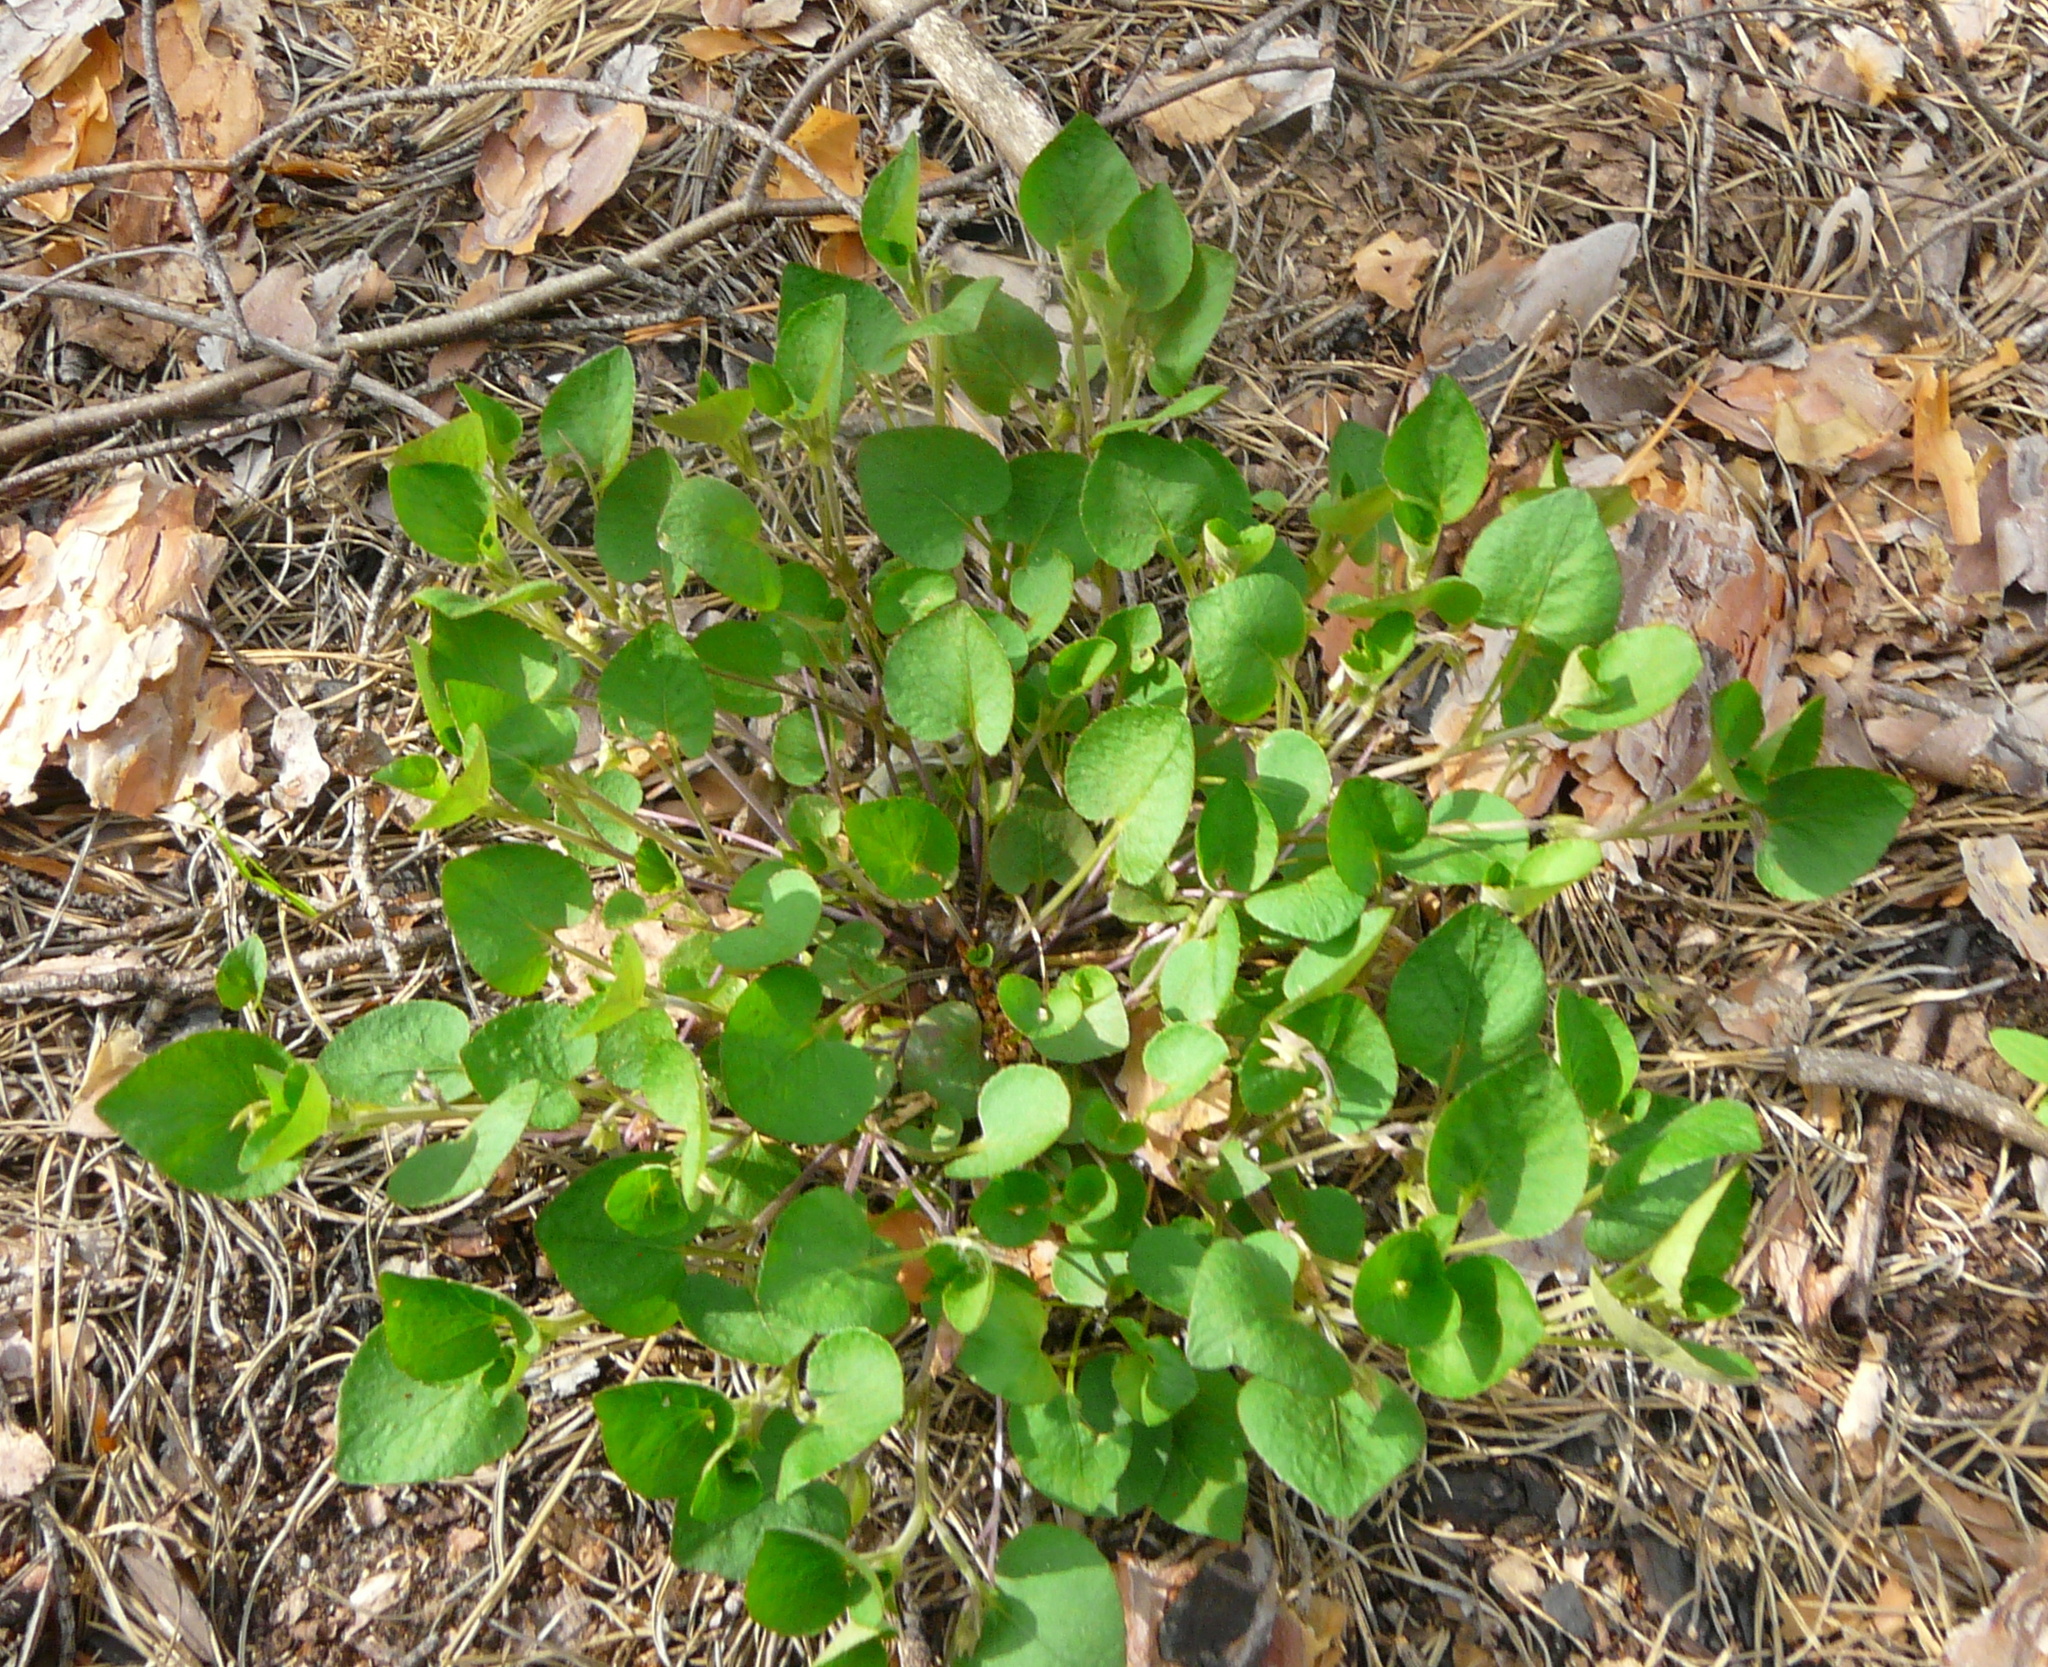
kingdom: Plantae
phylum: Tracheophyta
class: Magnoliopsida
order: Malpighiales
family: Violaceae
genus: Viola
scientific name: Viola rupestris
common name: Teesdale violet
